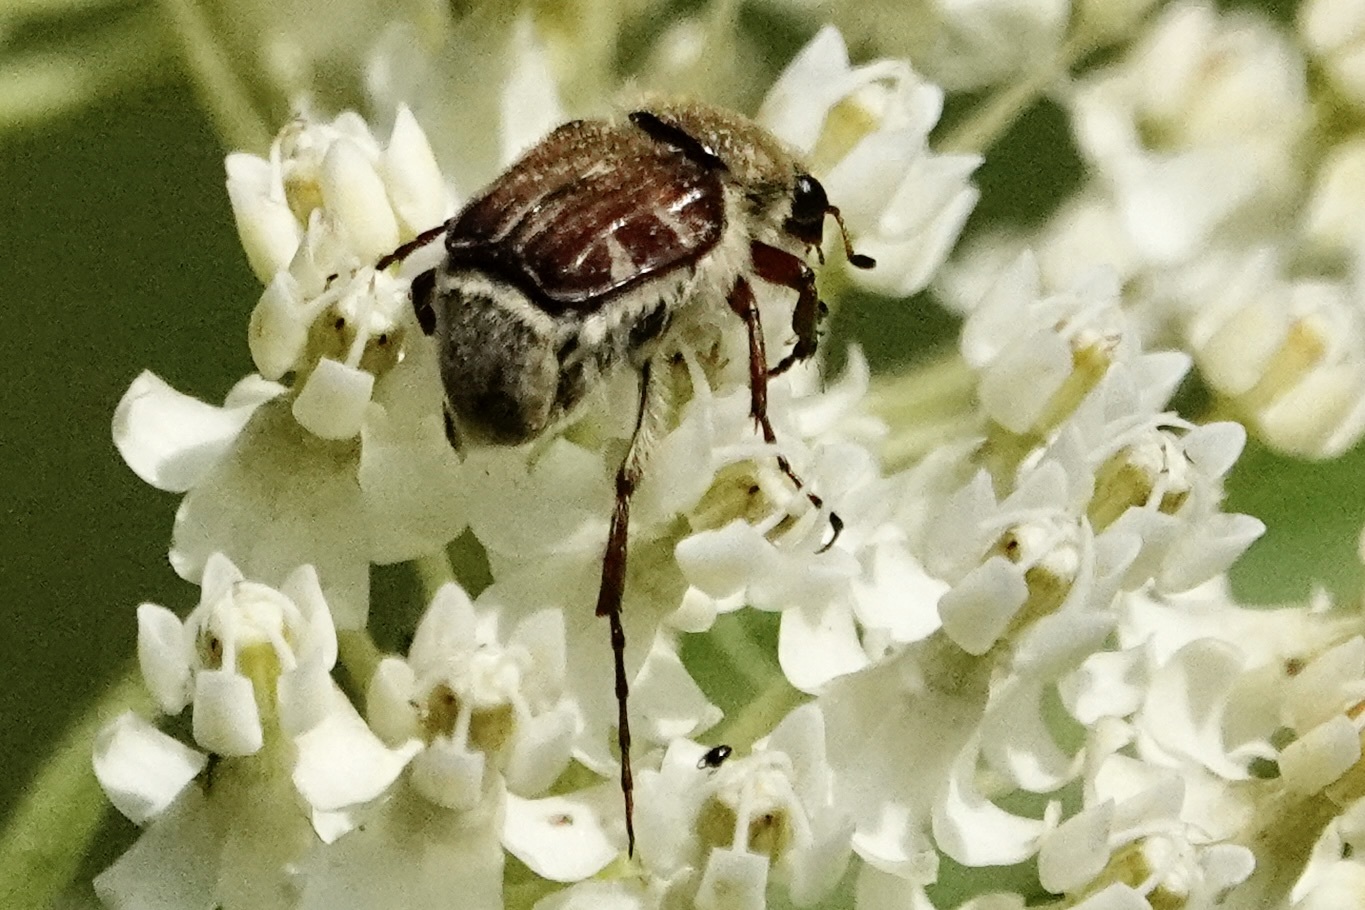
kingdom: Animalia
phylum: Arthropoda
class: Insecta
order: Coleoptera
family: Scarabaeidae
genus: Trichiotinus
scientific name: Trichiotinus piger
